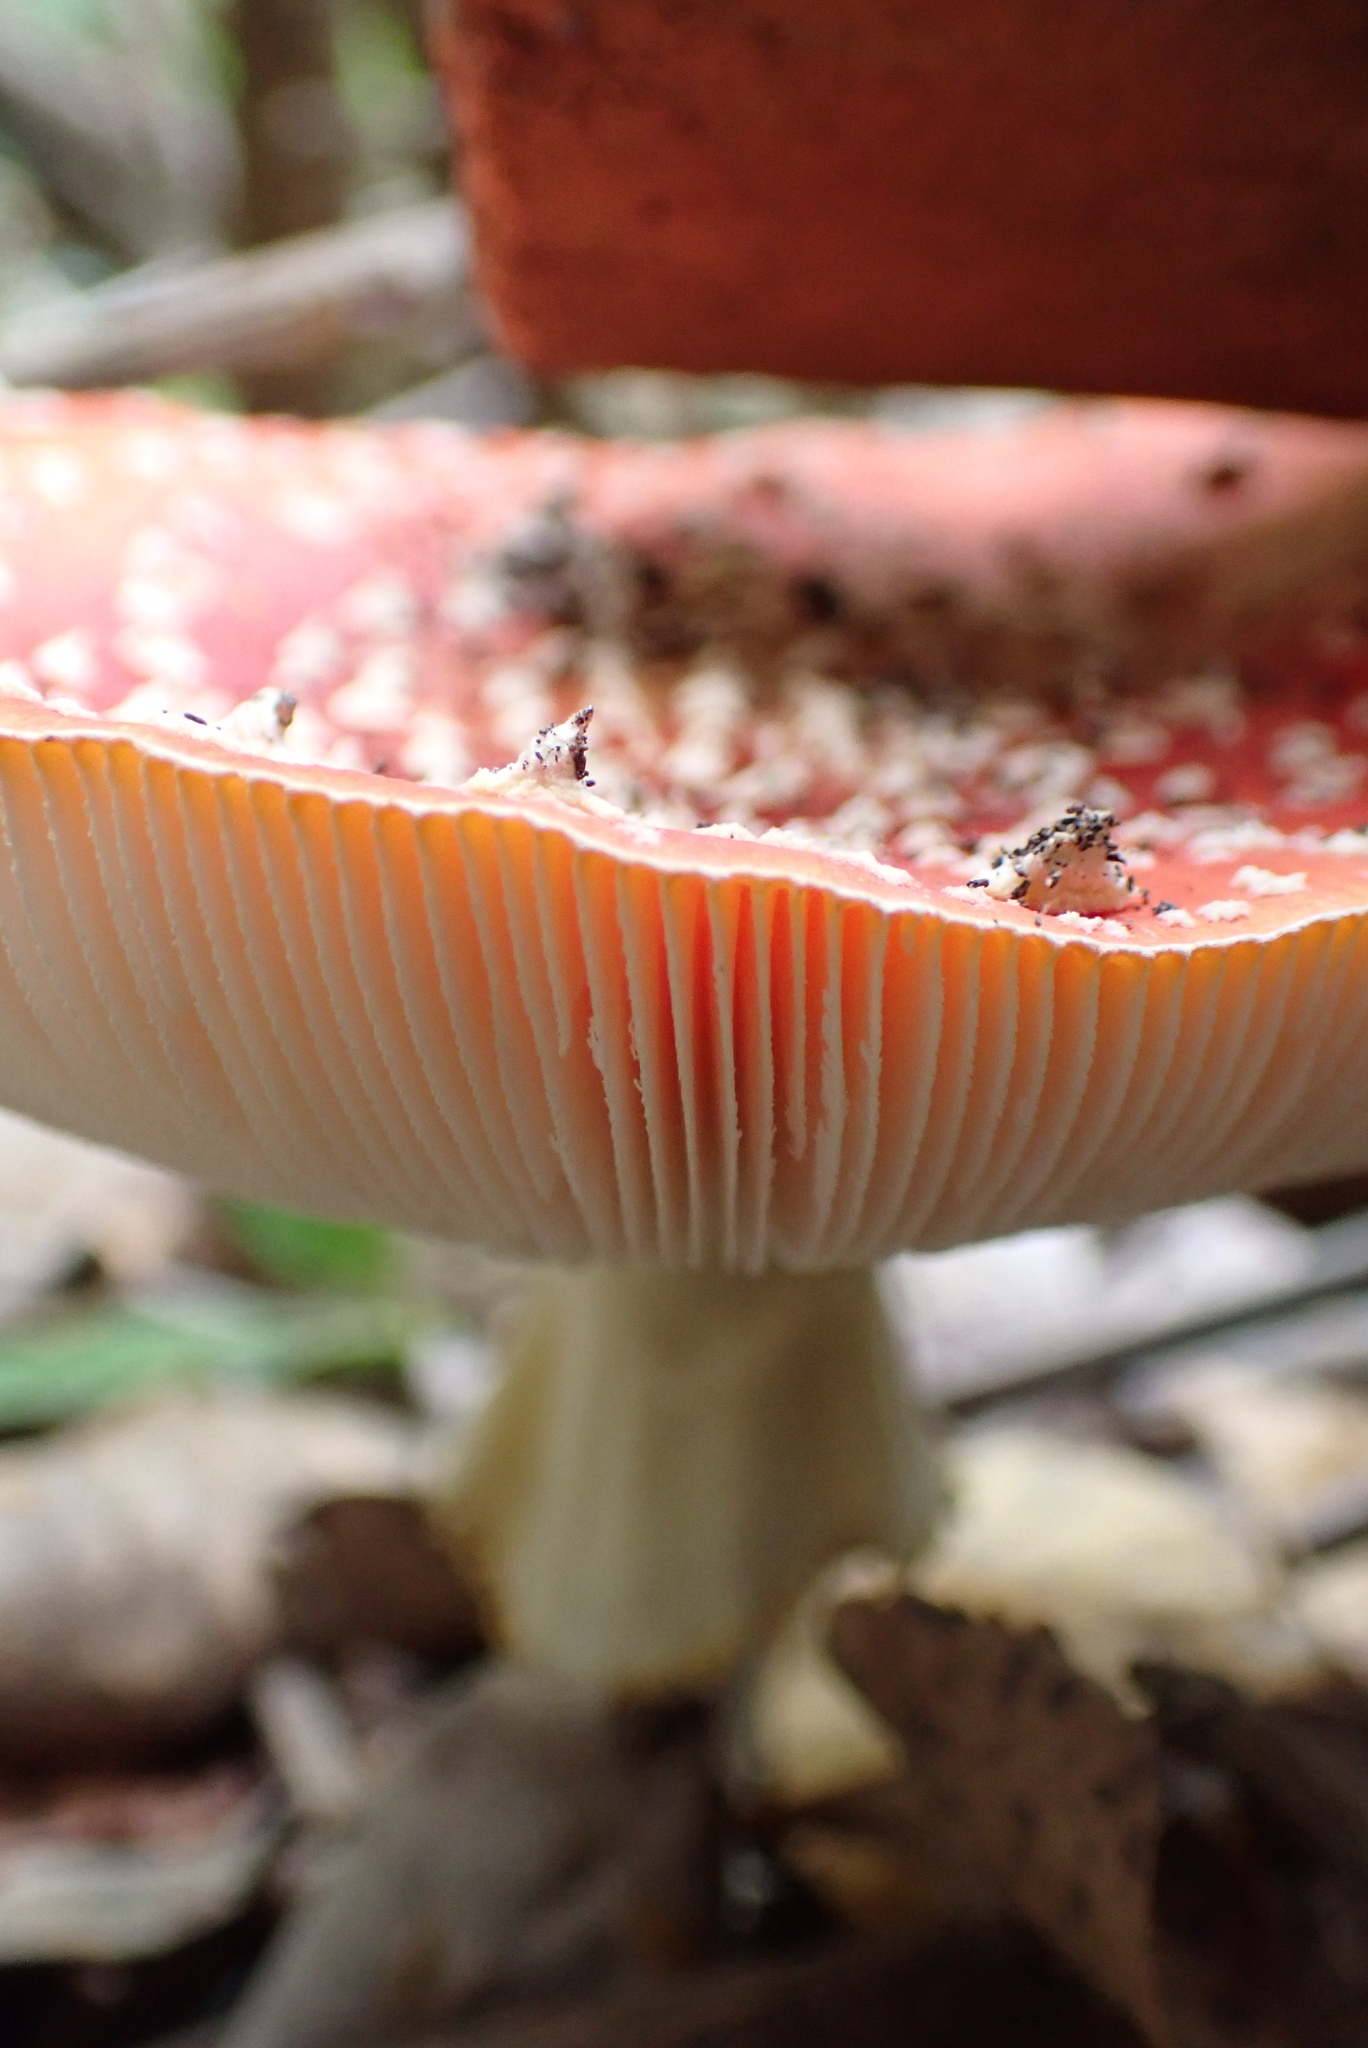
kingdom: Fungi
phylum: Basidiomycota
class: Agaricomycetes
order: Agaricales
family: Amanitaceae
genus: Amanita
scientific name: Amanita muscaria
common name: Fly agaric
